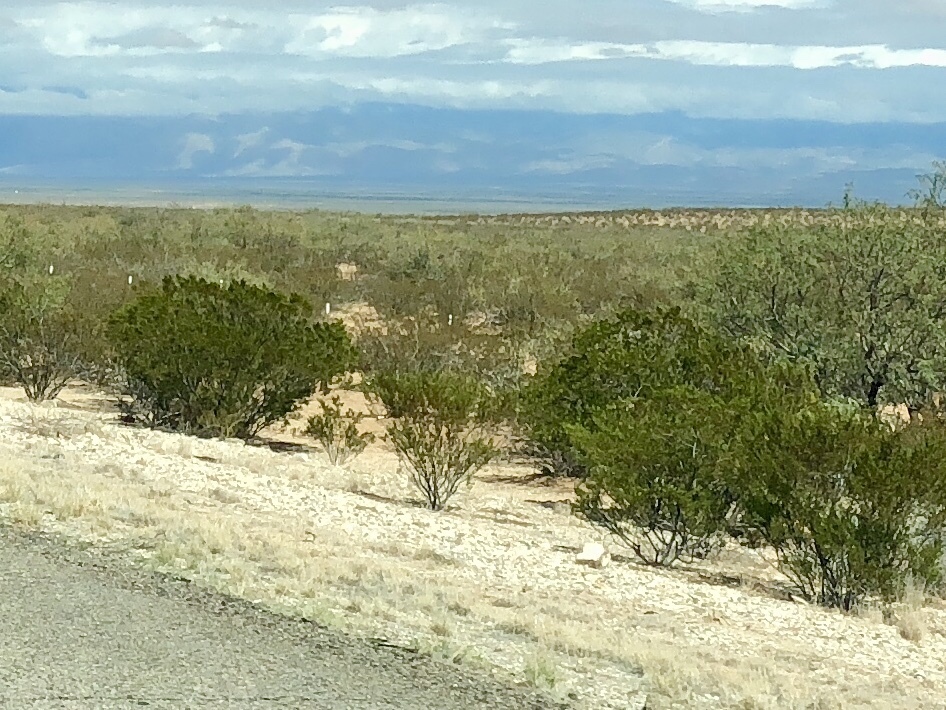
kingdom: Plantae
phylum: Tracheophyta
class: Magnoliopsida
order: Zygophyllales
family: Zygophyllaceae
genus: Larrea
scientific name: Larrea tridentata
